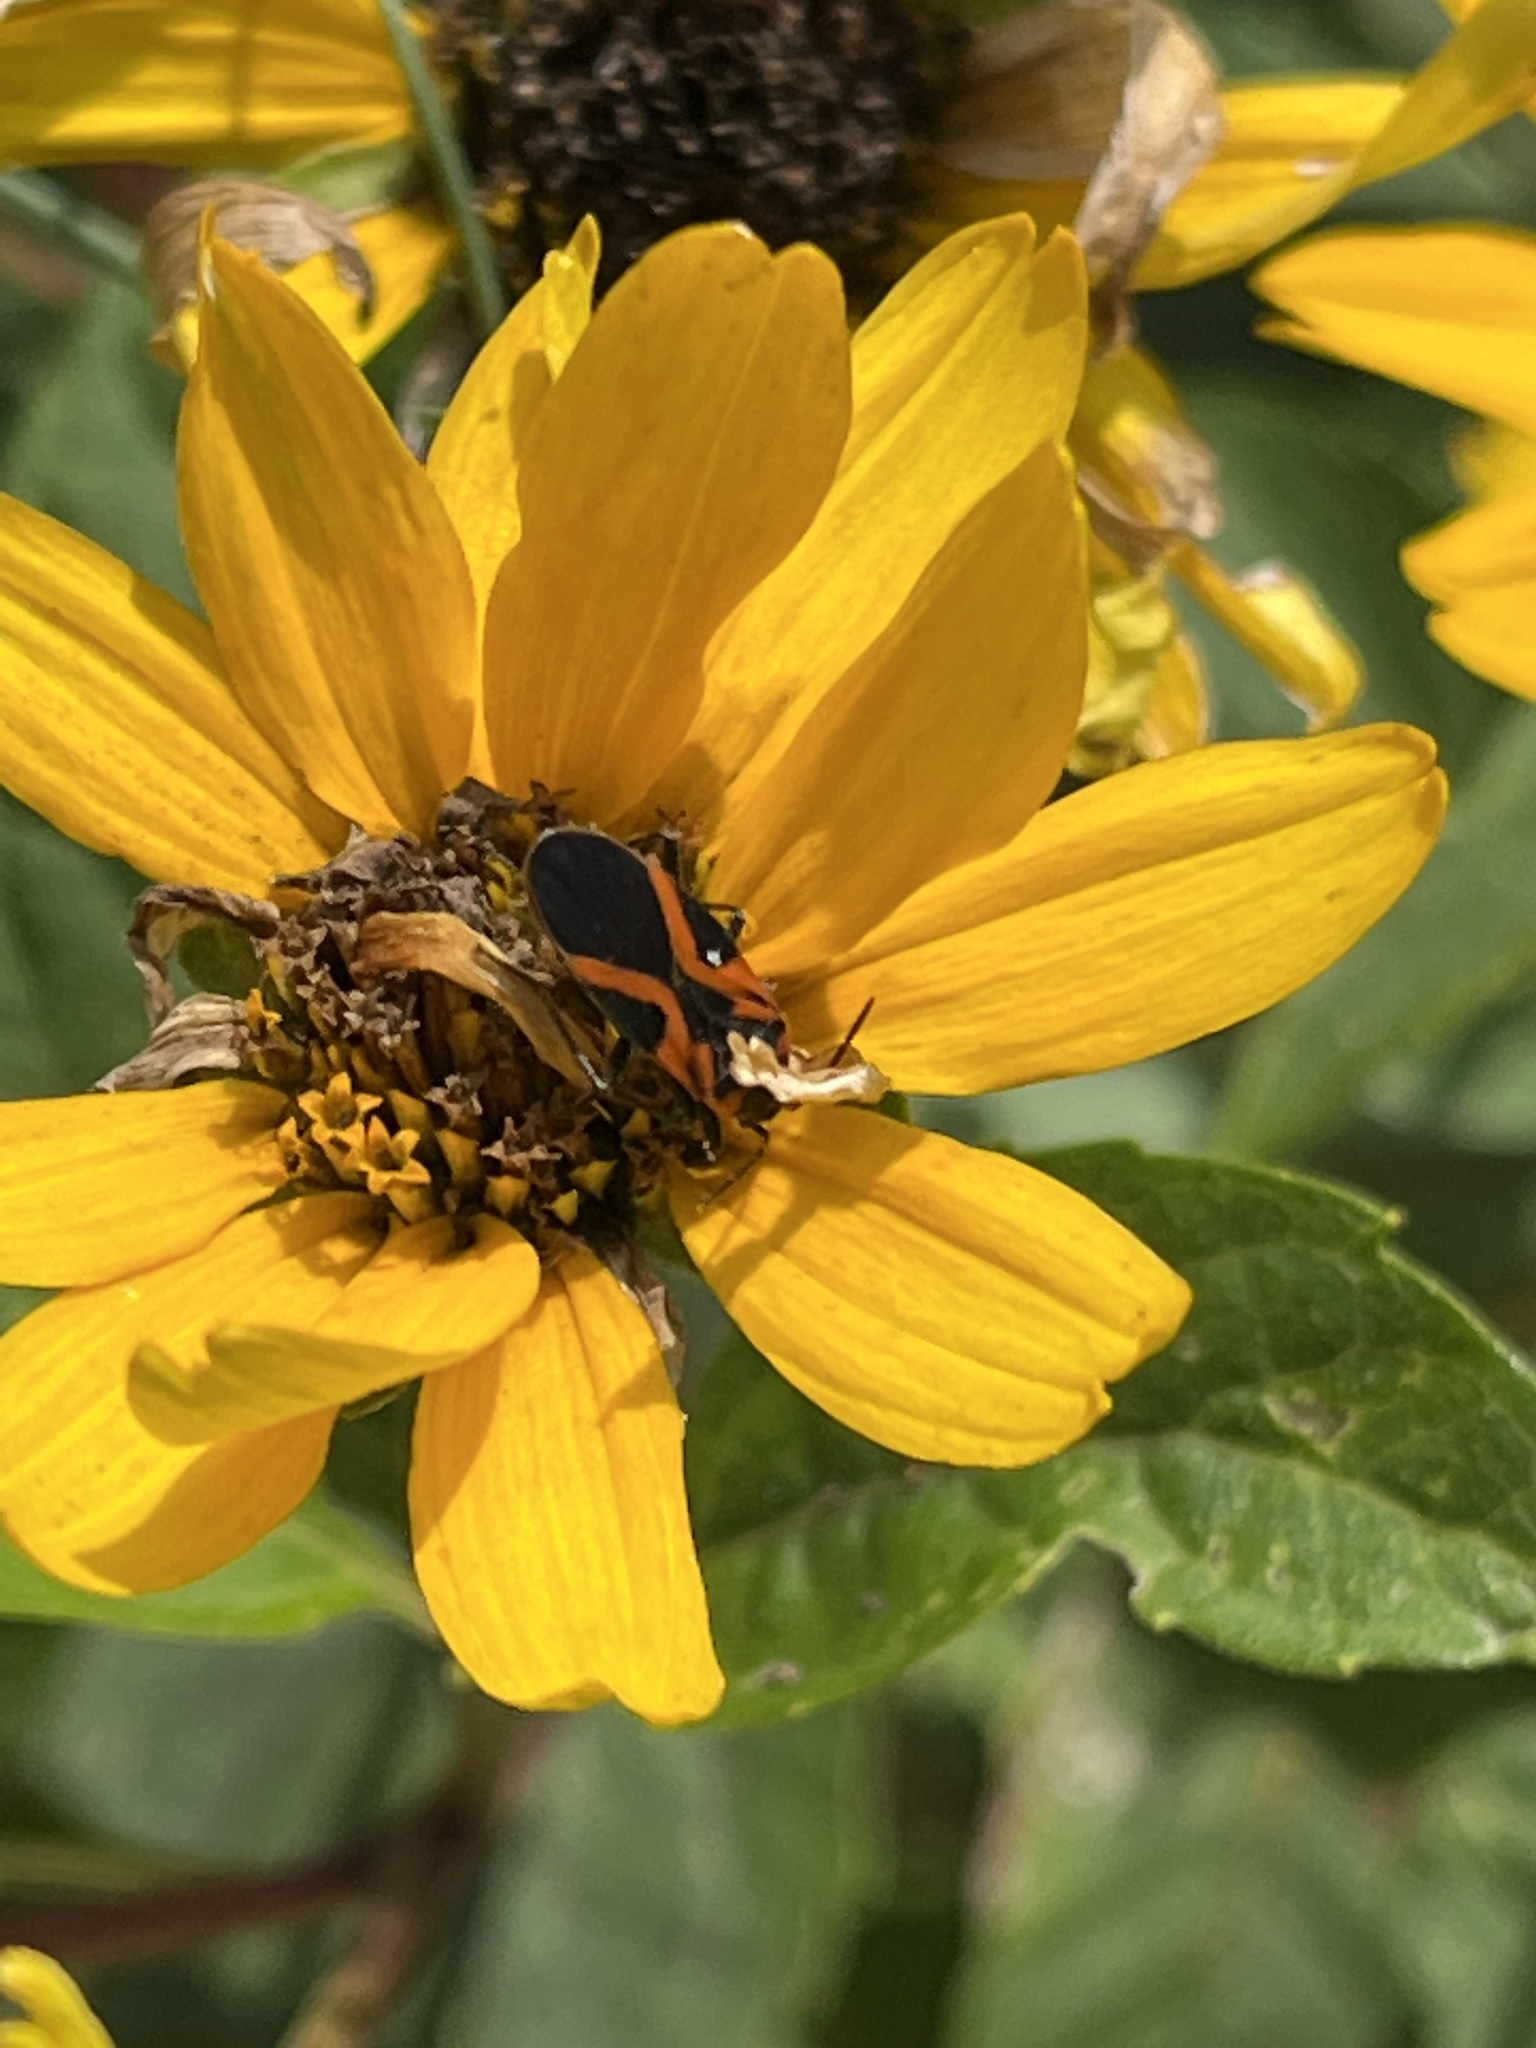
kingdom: Animalia
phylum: Arthropoda
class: Insecta
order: Hemiptera
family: Lygaeidae
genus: Lygaeus
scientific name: Lygaeus turcicus
